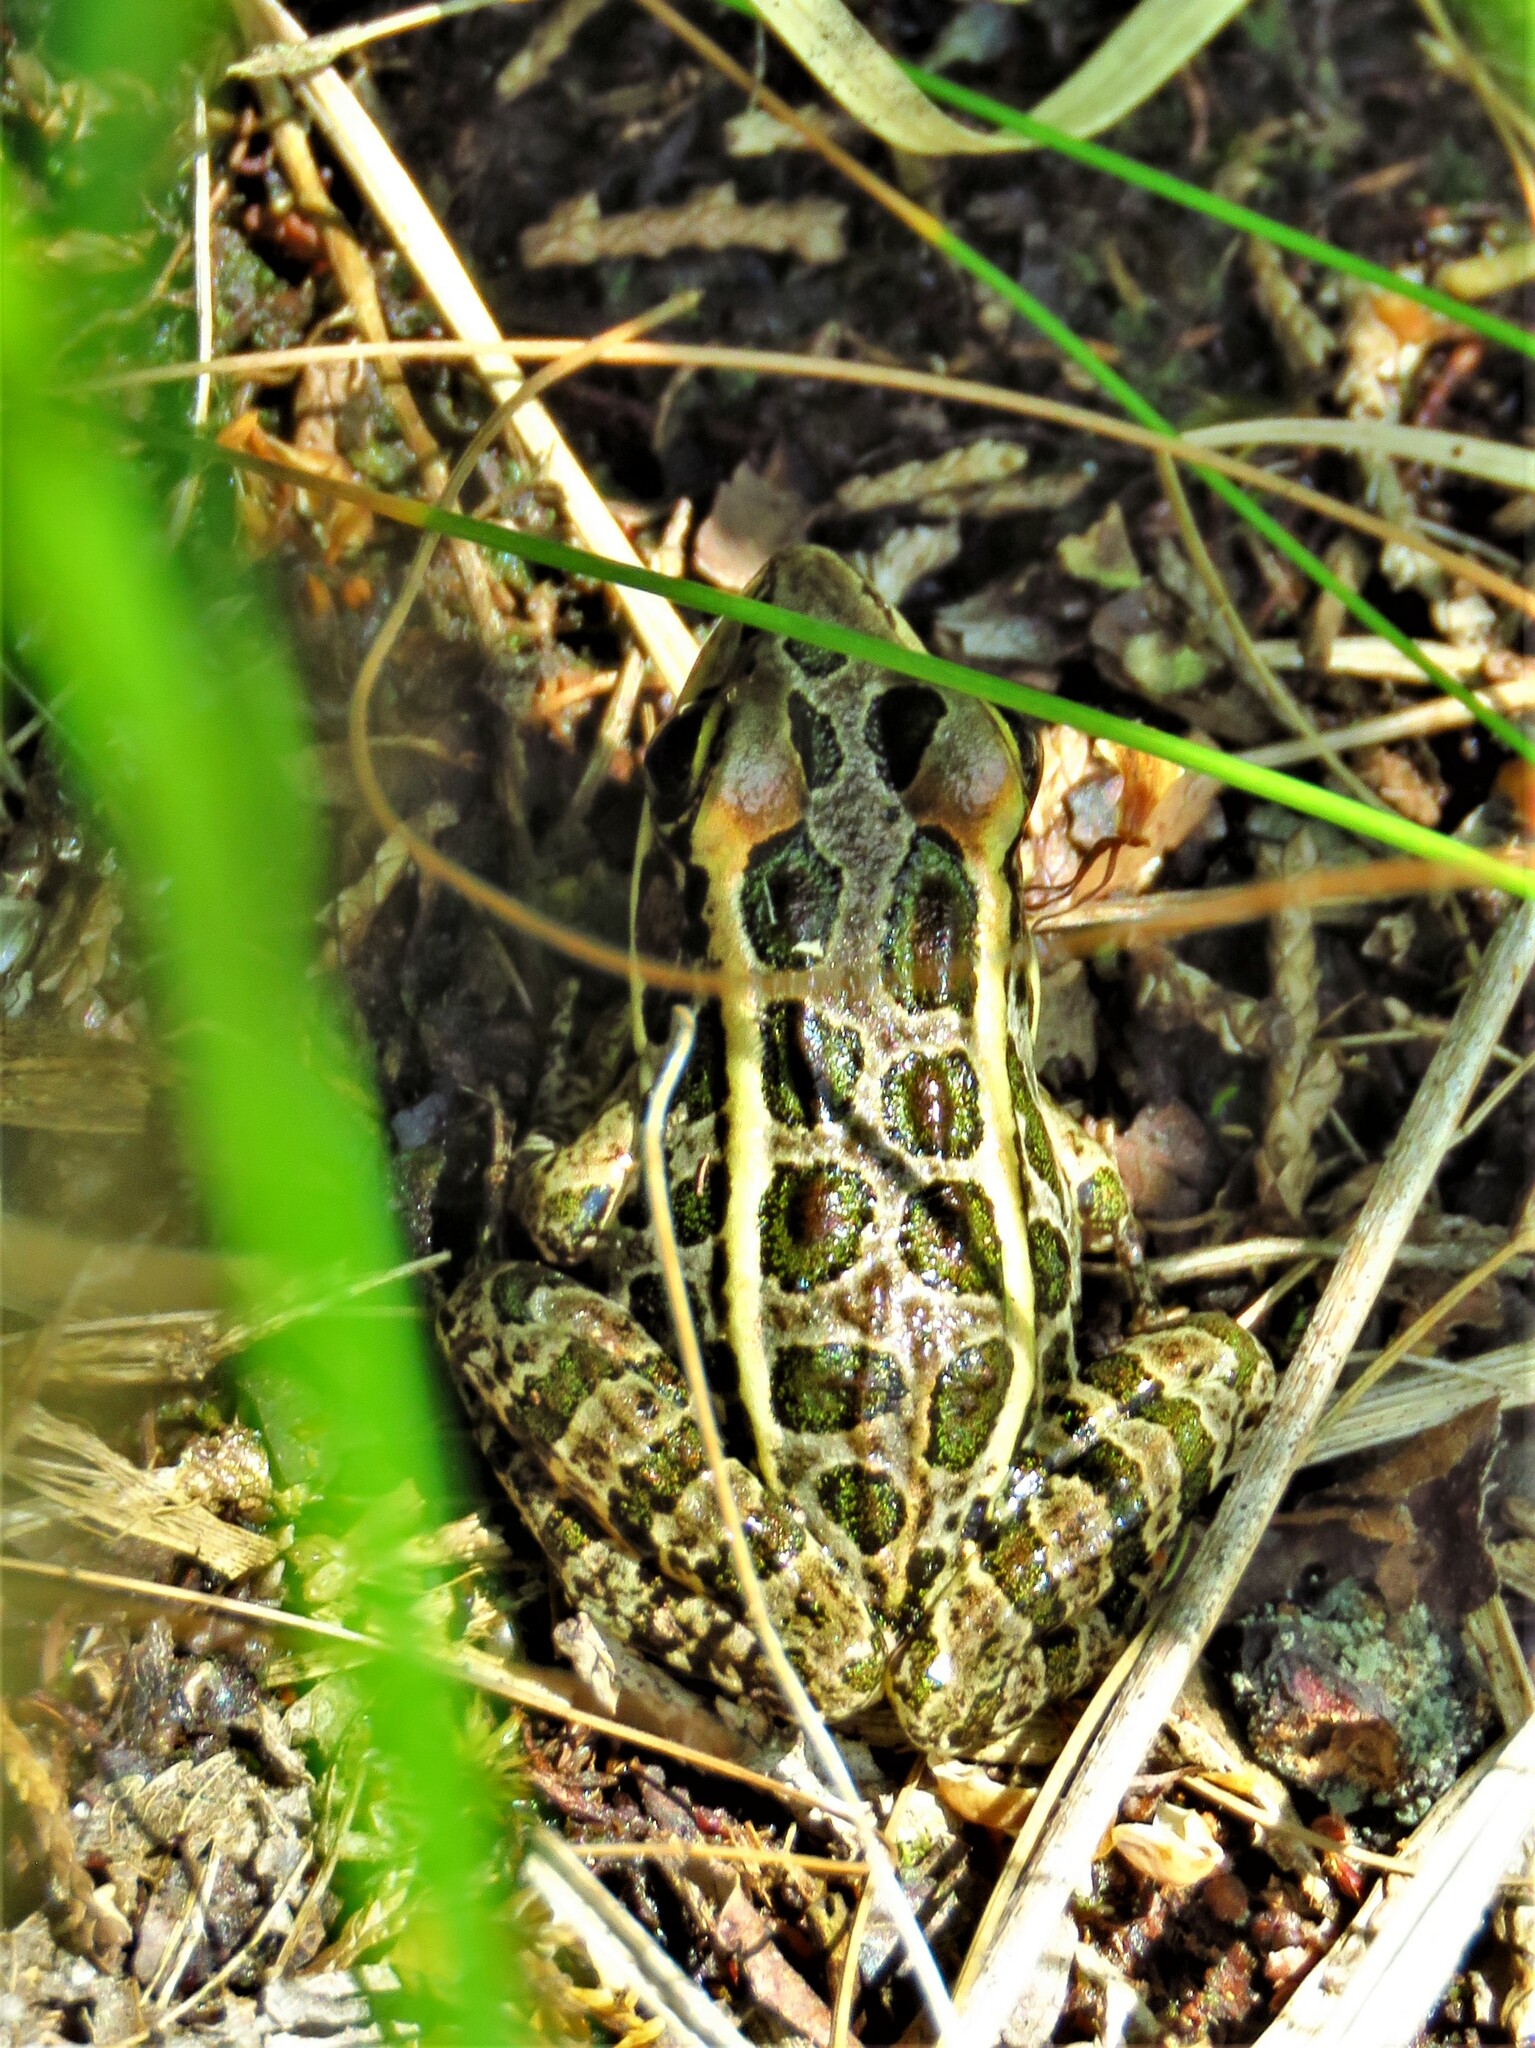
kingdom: Animalia
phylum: Chordata
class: Amphibia
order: Anura
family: Ranidae
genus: Lithobates
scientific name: Lithobates palustris
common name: Pickerel frog
